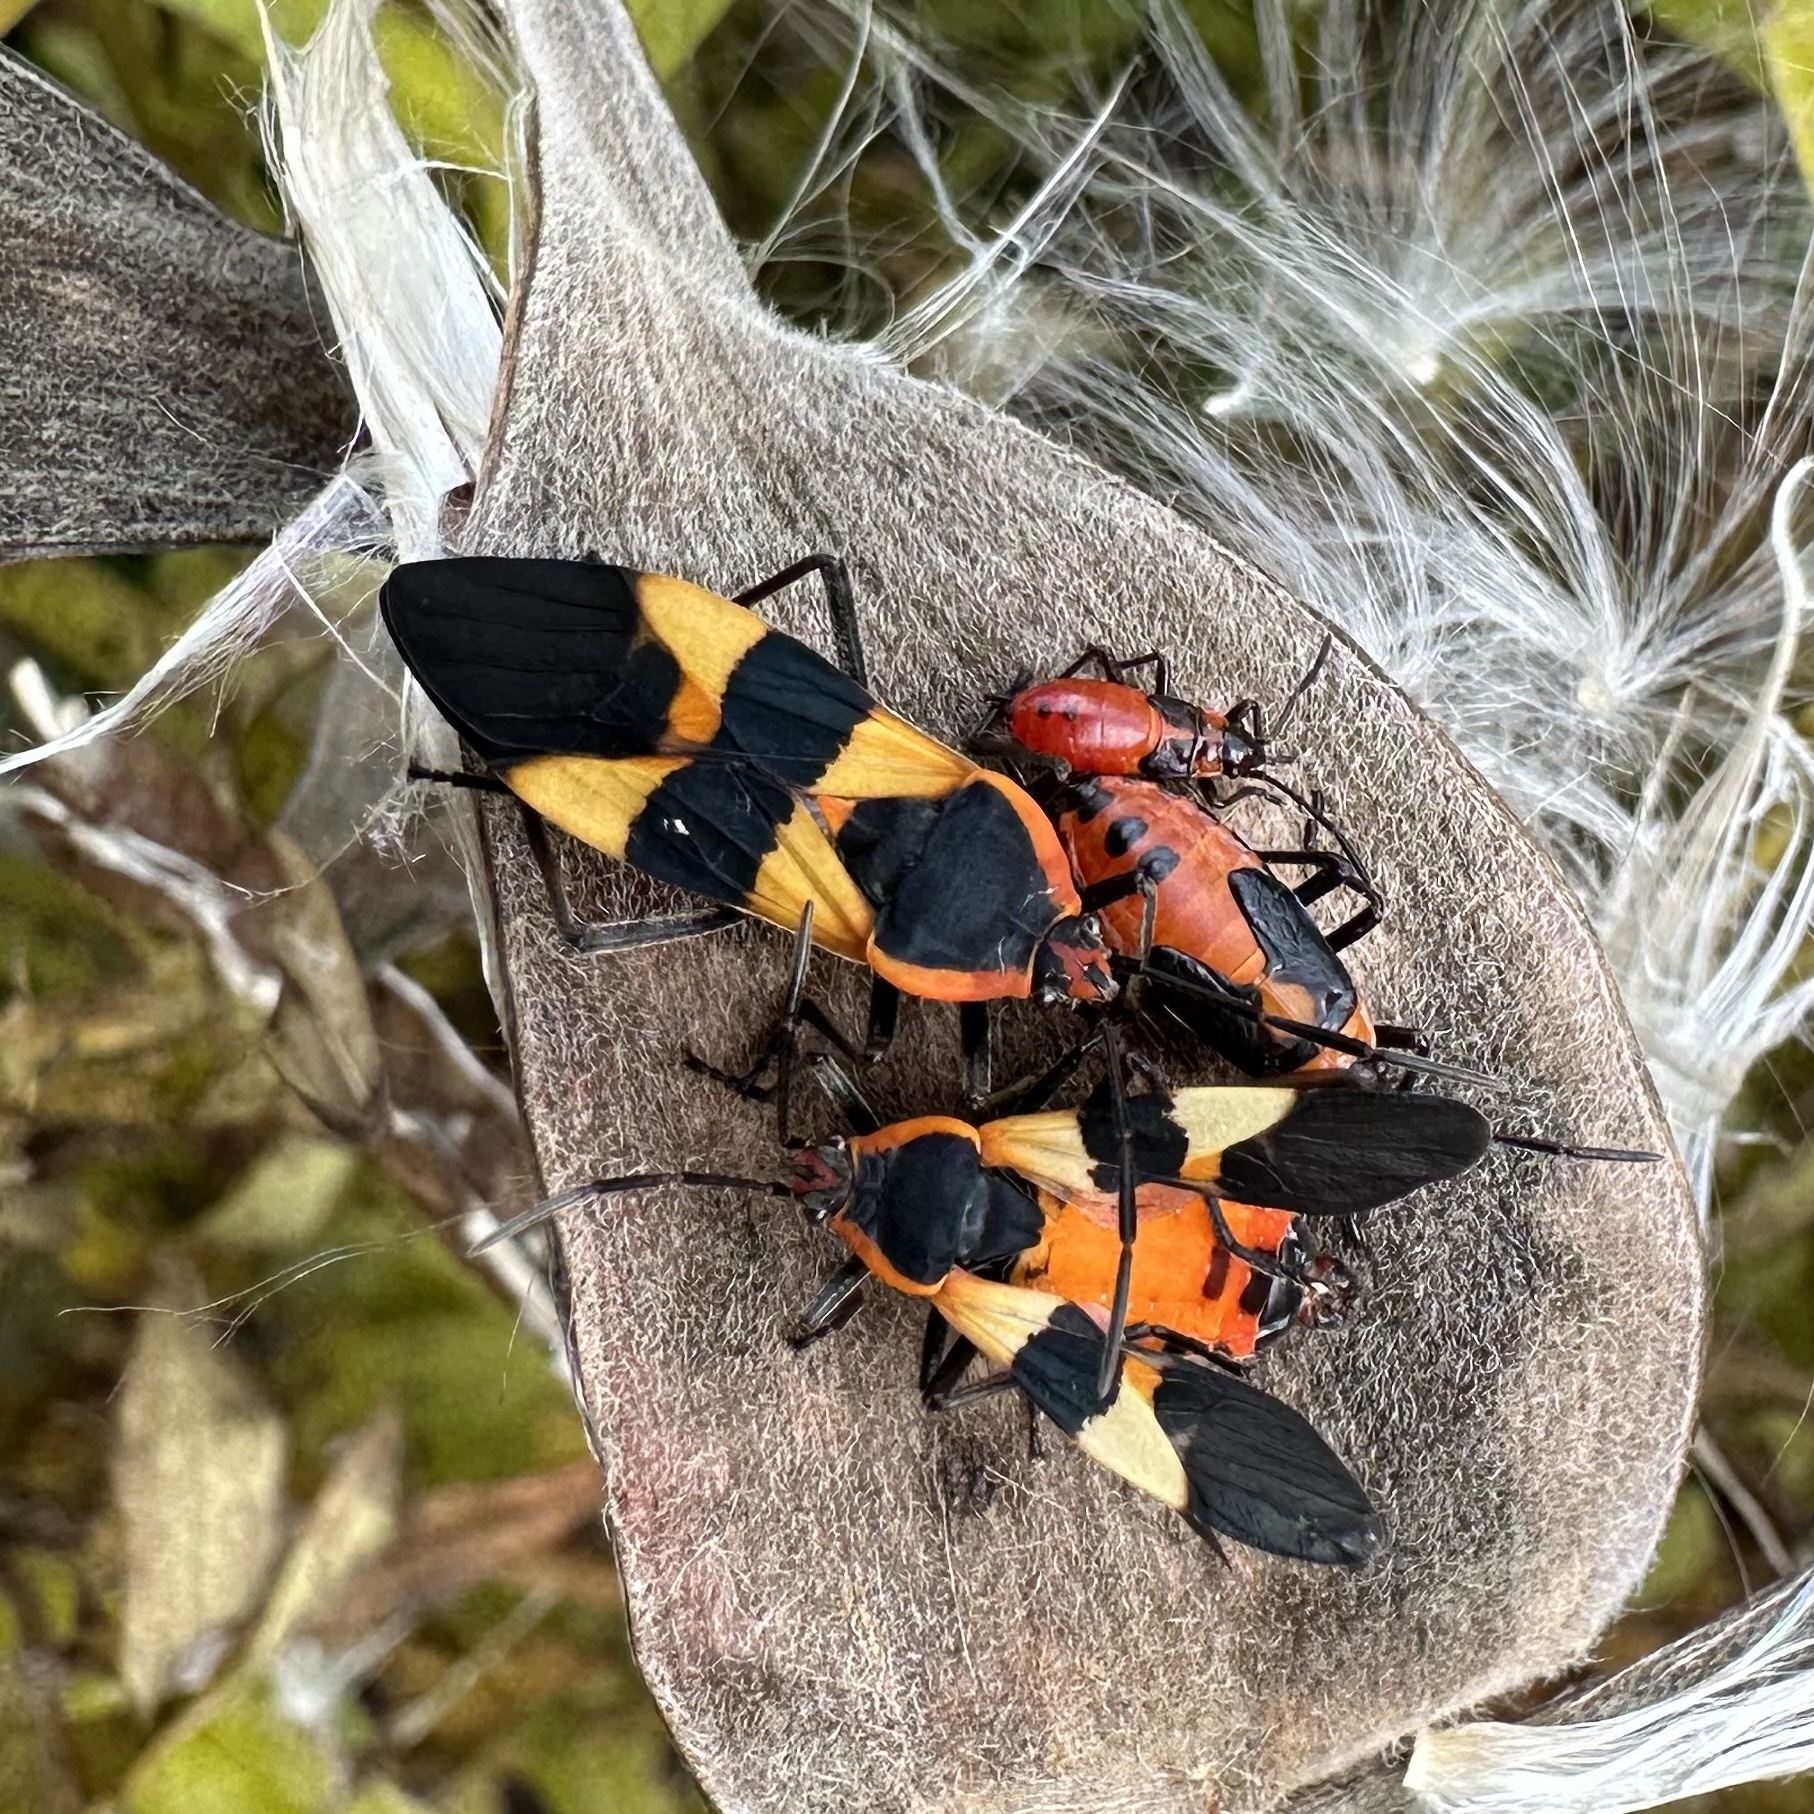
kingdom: Animalia
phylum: Arthropoda
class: Insecta
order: Hemiptera
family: Lygaeidae
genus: Oncopeltus
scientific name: Oncopeltus fasciatus
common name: Large milkweed bug
